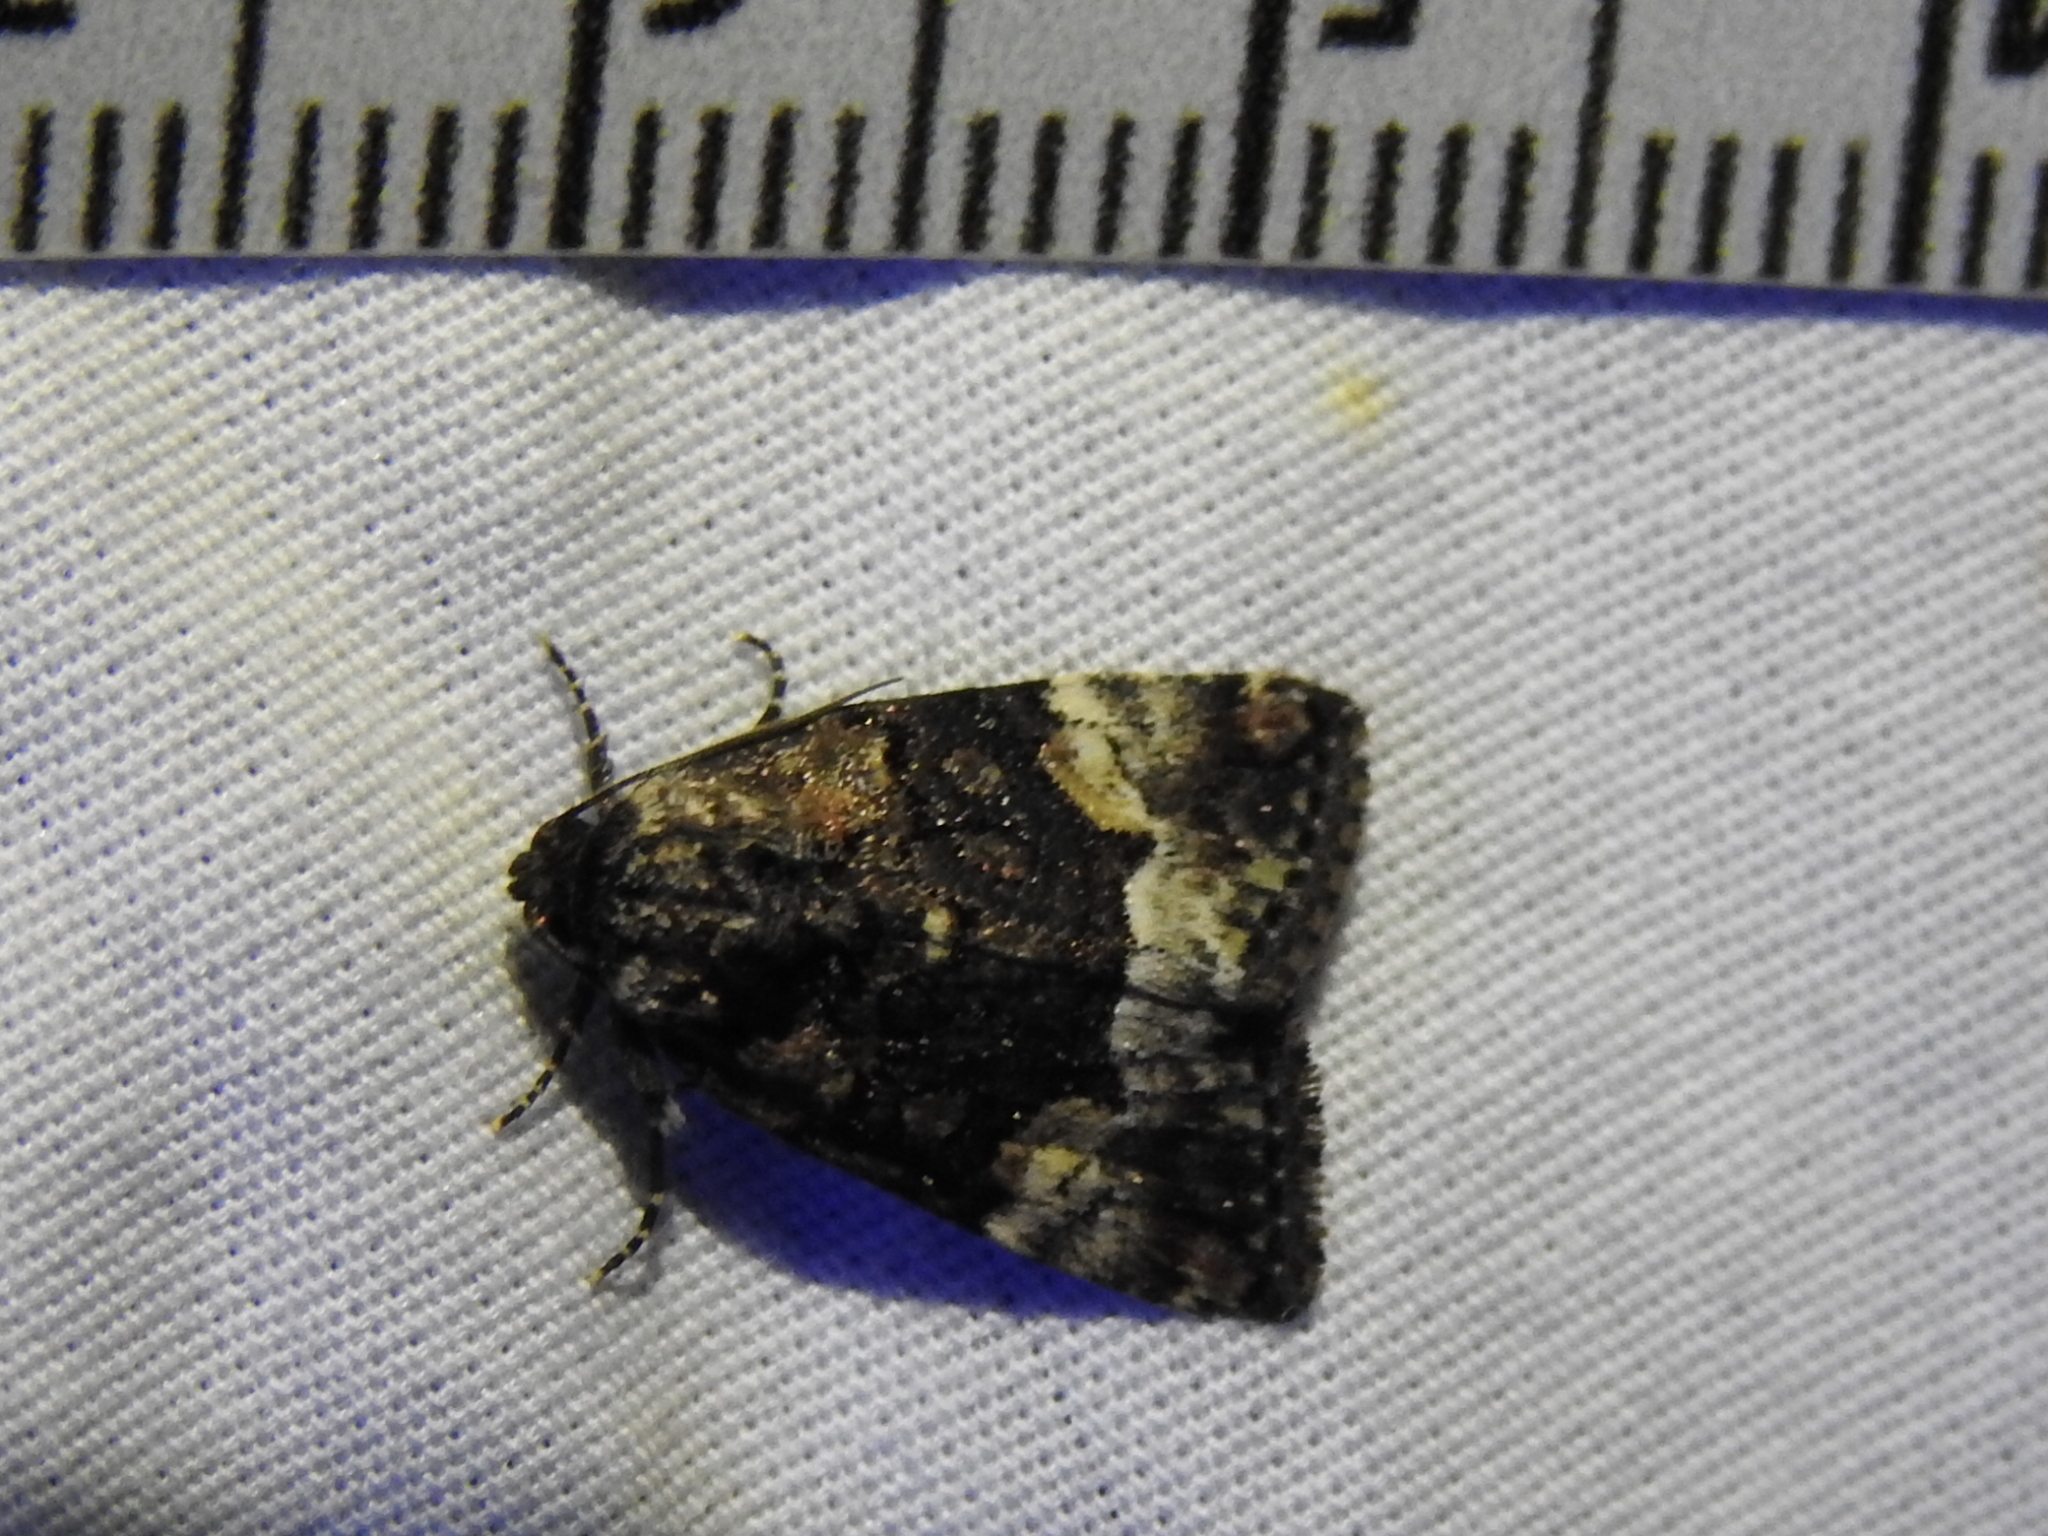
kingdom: Animalia
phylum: Arthropoda
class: Insecta
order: Lepidoptera
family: Noctuidae
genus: Elaphria
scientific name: Elaphria georgei
